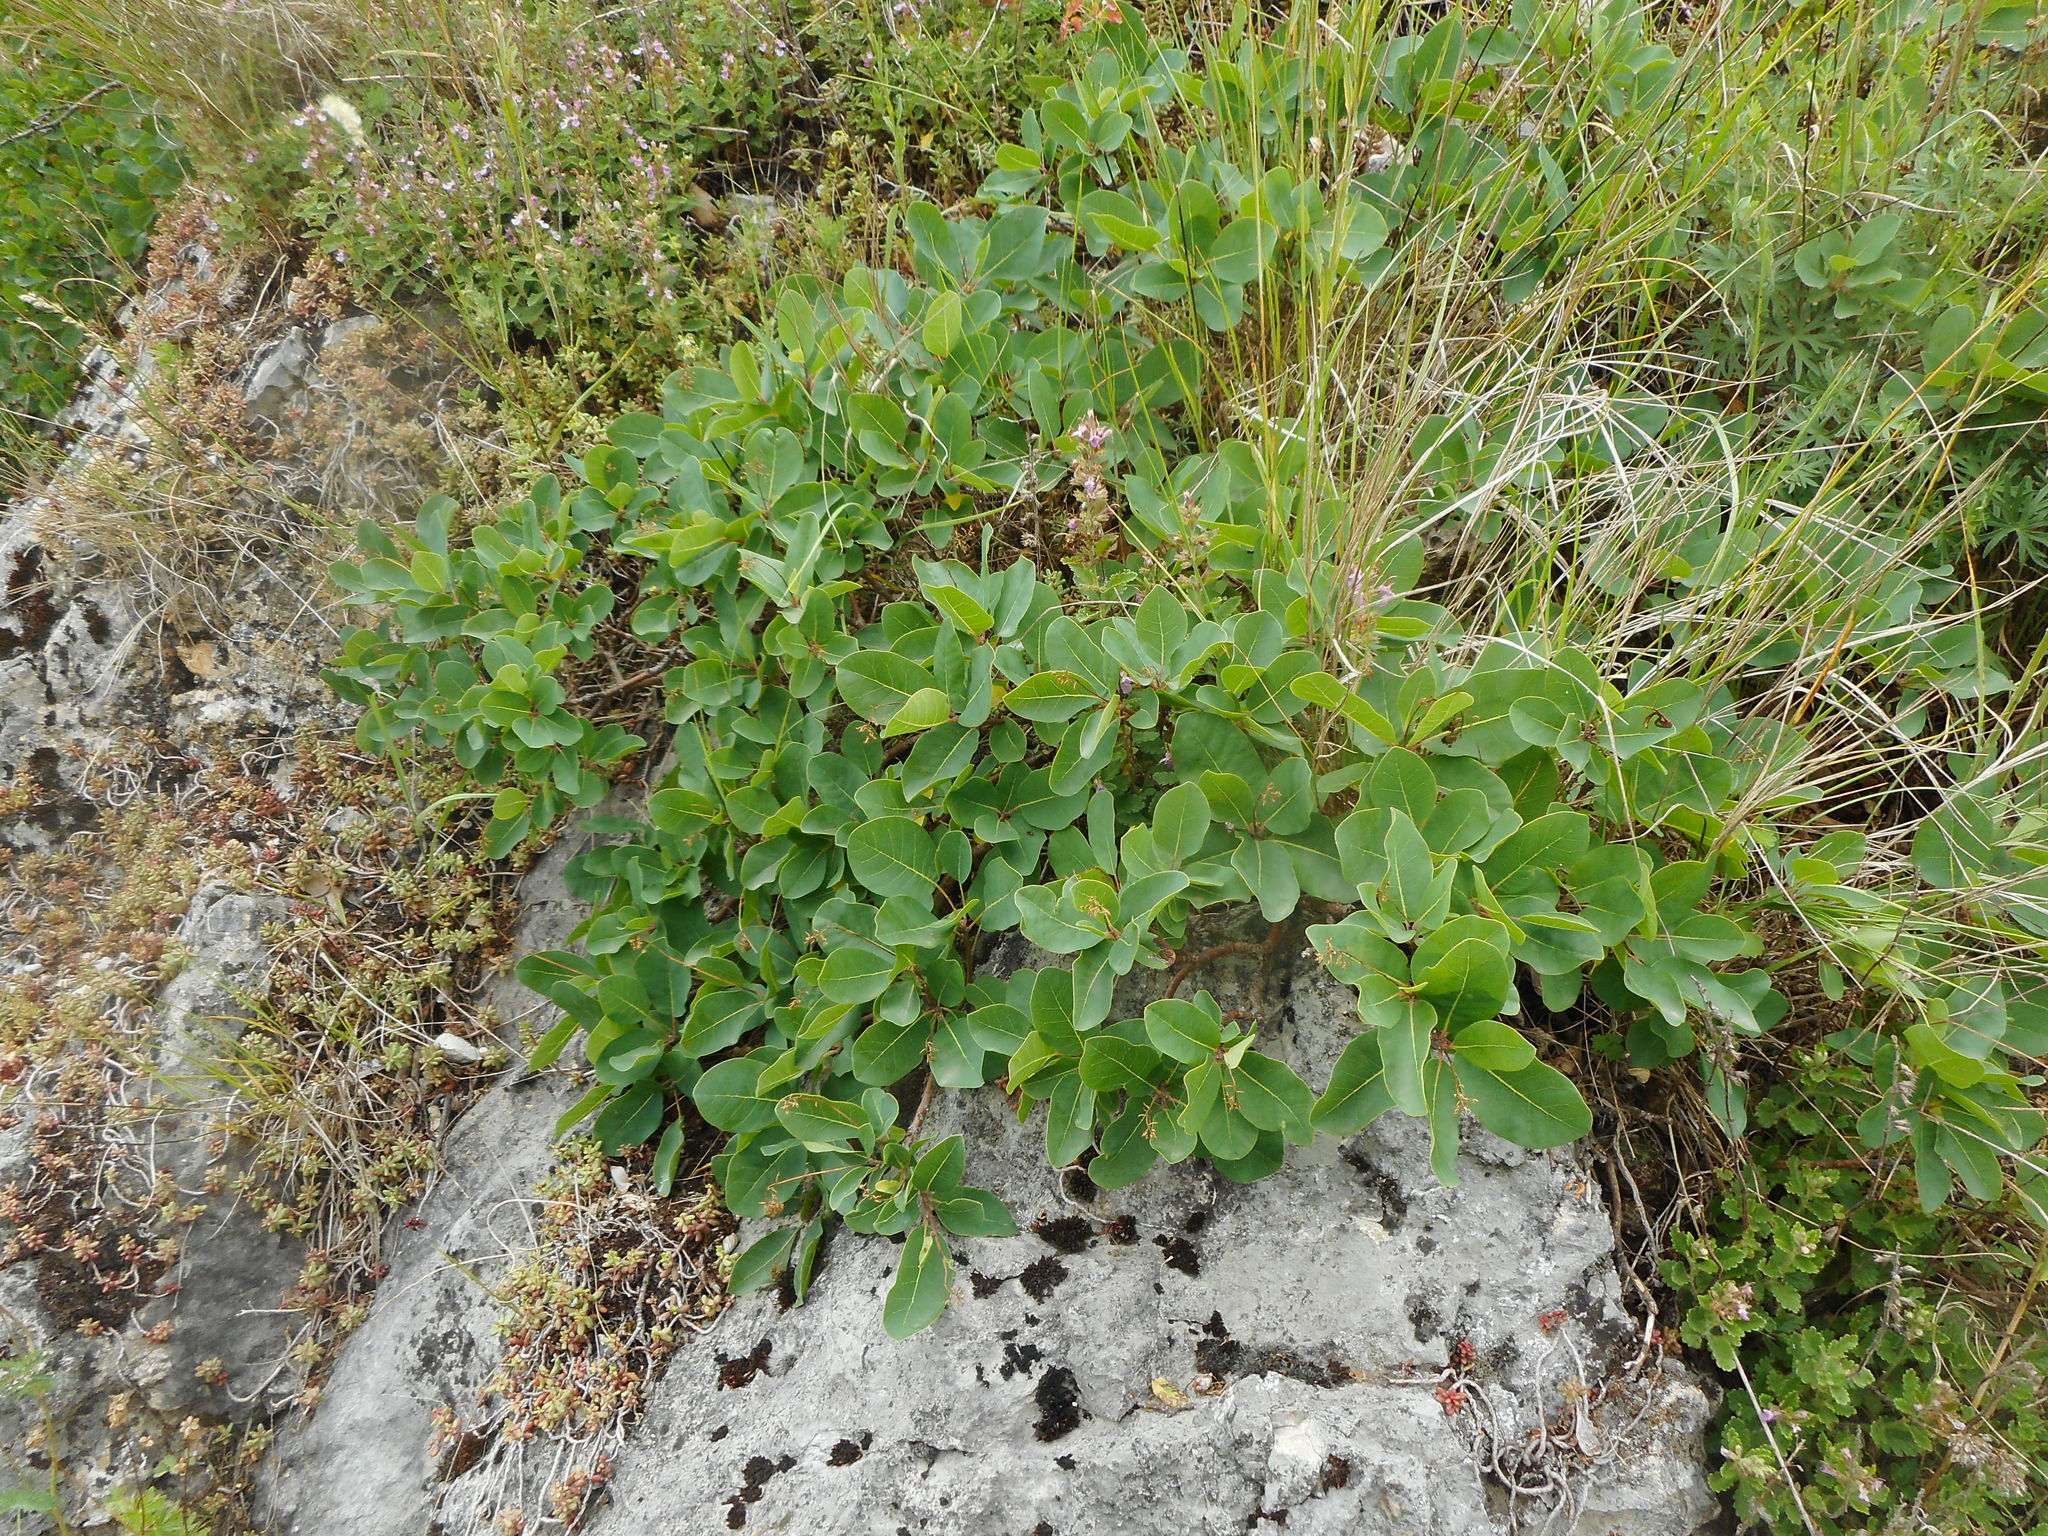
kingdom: Plantae
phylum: Tracheophyta
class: Magnoliopsida
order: Sapindales
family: Anacardiaceae
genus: Cotinus
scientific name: Cotinus coggygria
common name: Smoke-tree
